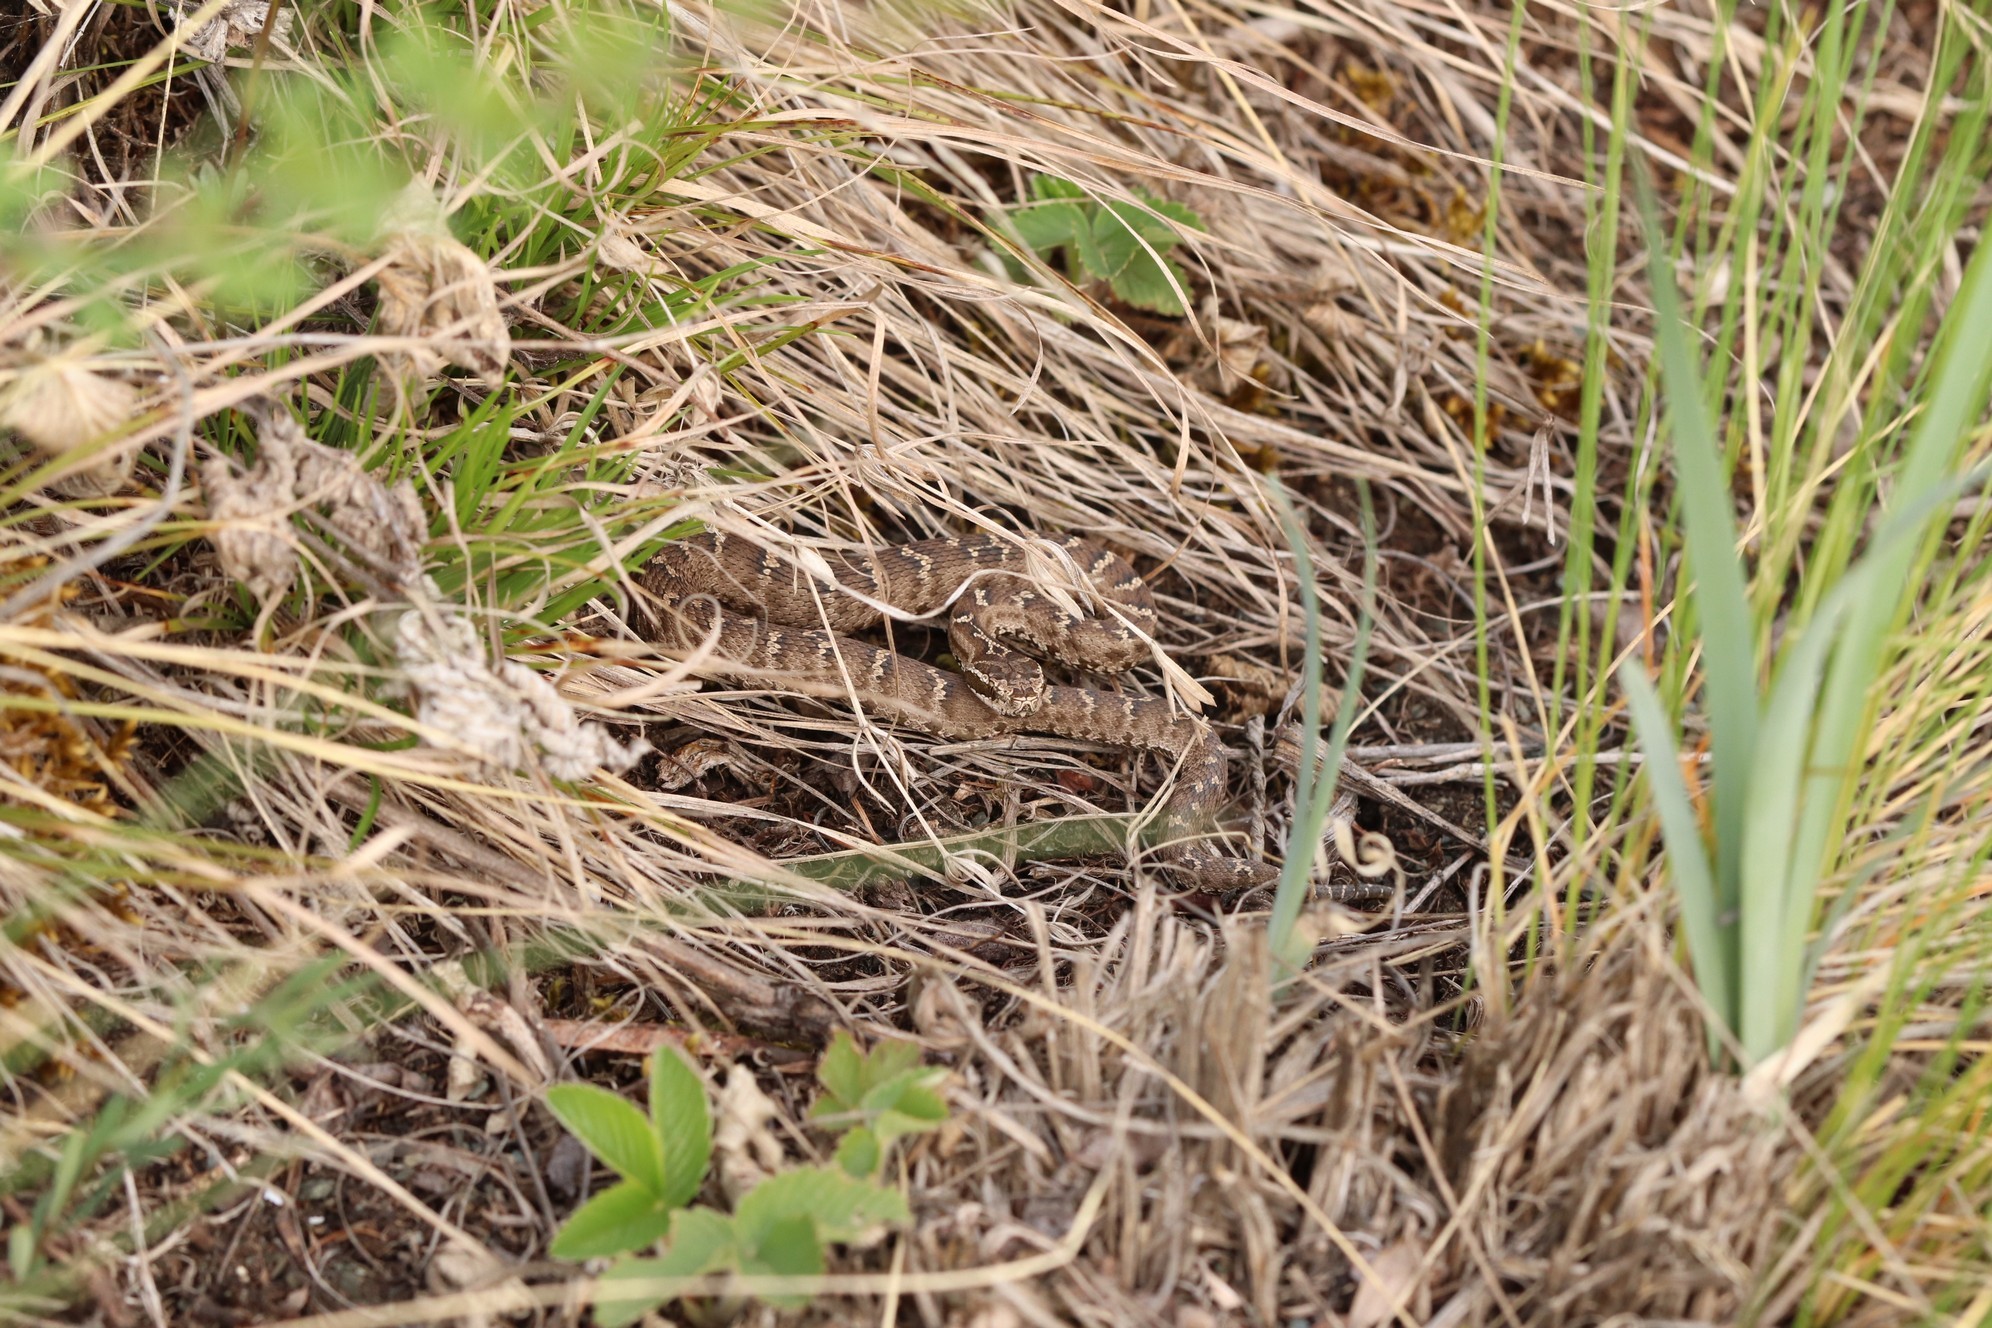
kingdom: Animalia
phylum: Chordata
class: Squamata
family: Viperidae
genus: Gloydius
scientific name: Gloydius halys
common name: Halys pit viper
